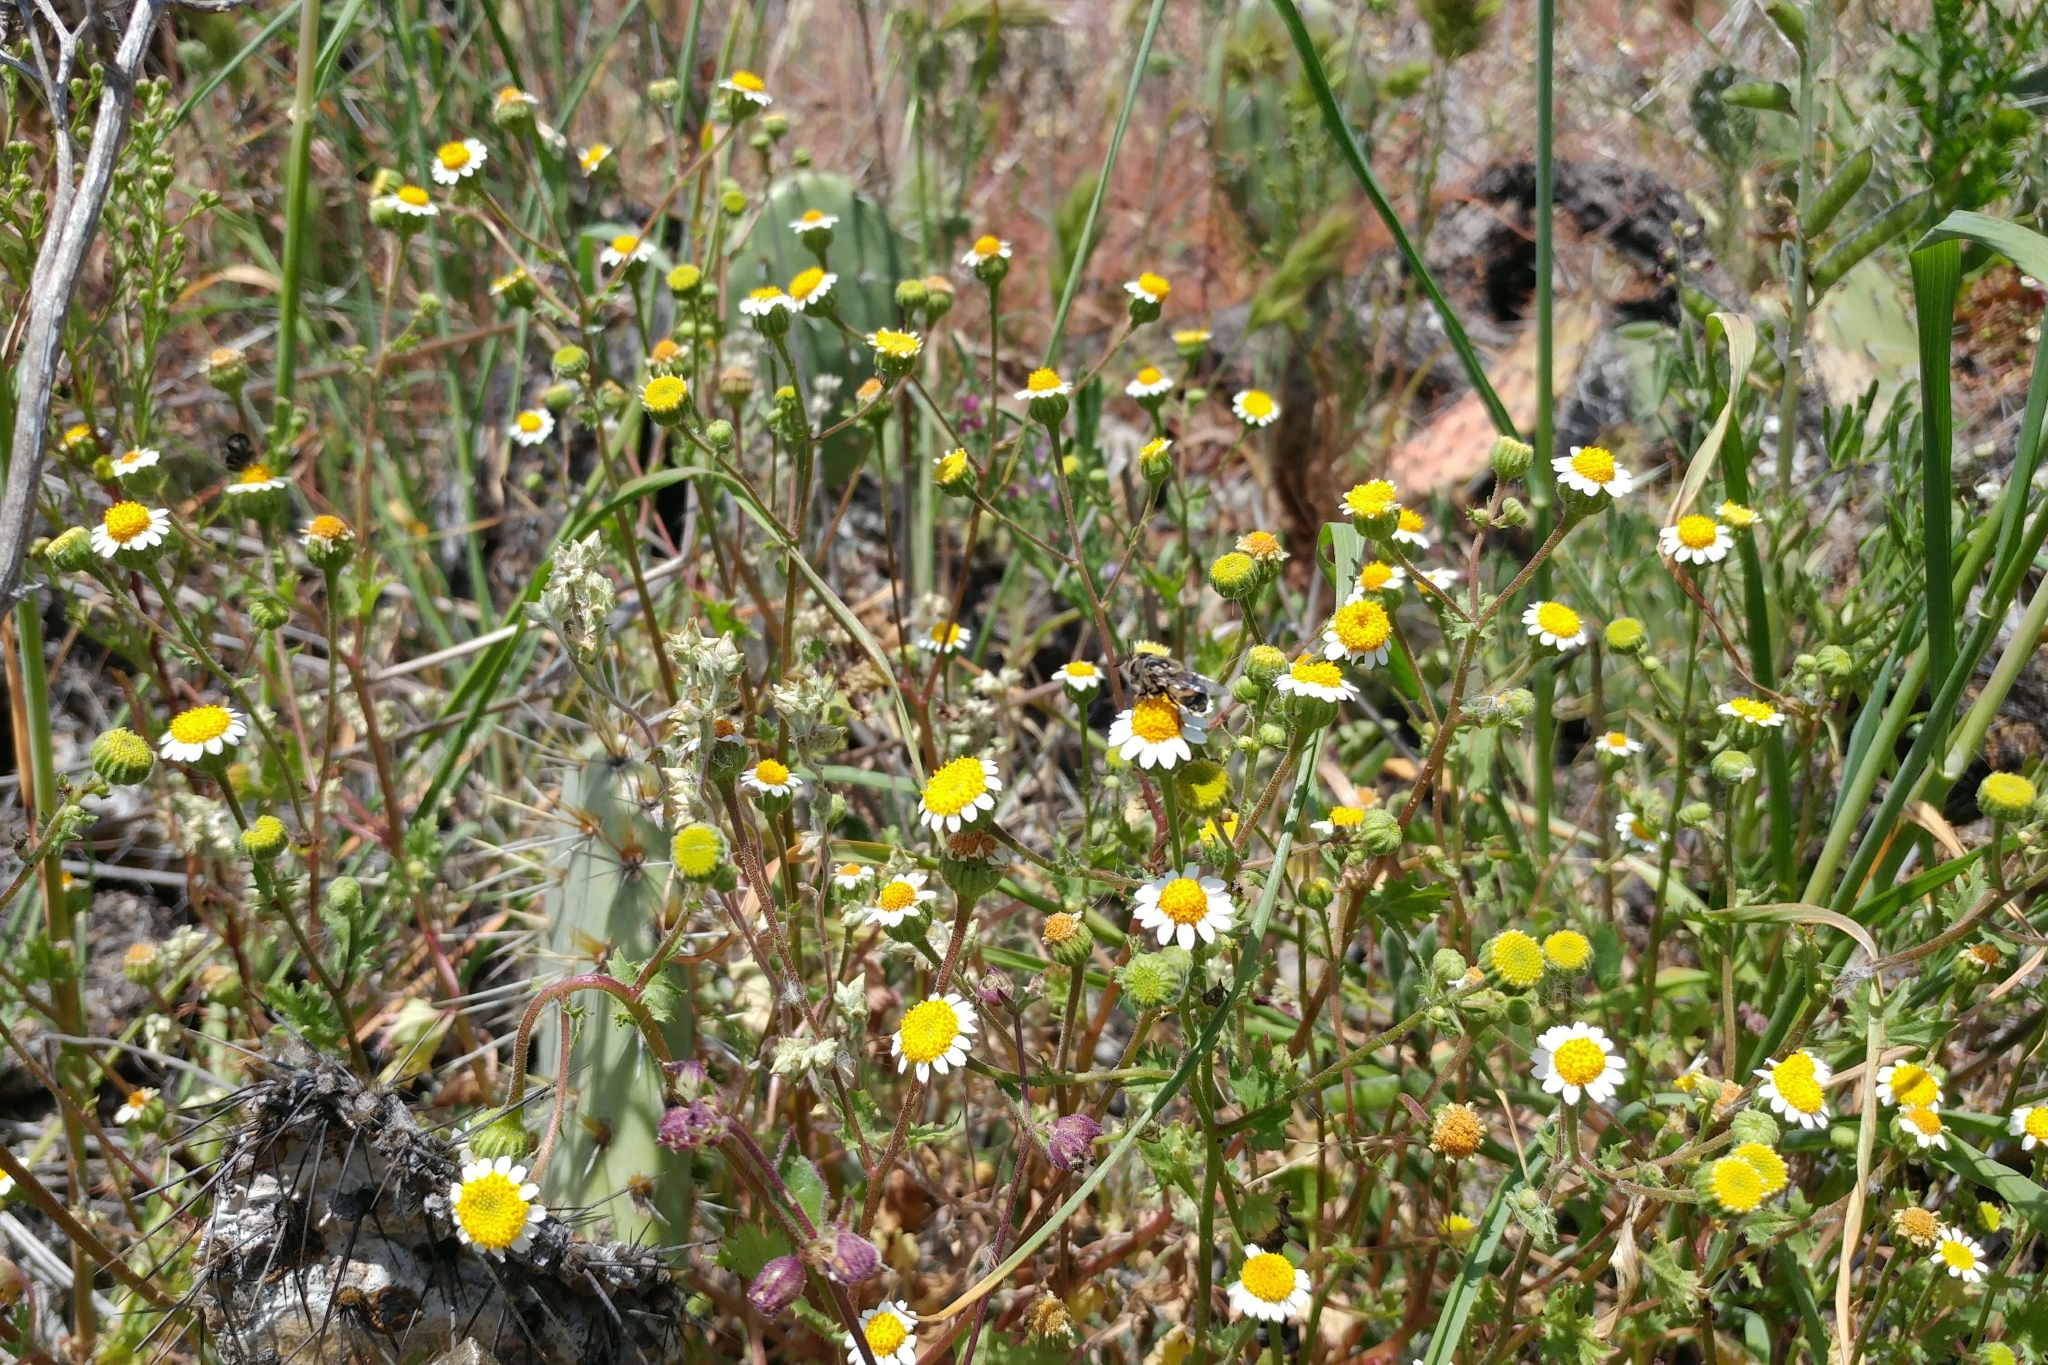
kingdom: Plantae
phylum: Tracheophyta
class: Magnoliopsida
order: Asterales
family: Asteraceae
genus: Laphamia
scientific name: Laphamia emoryi
